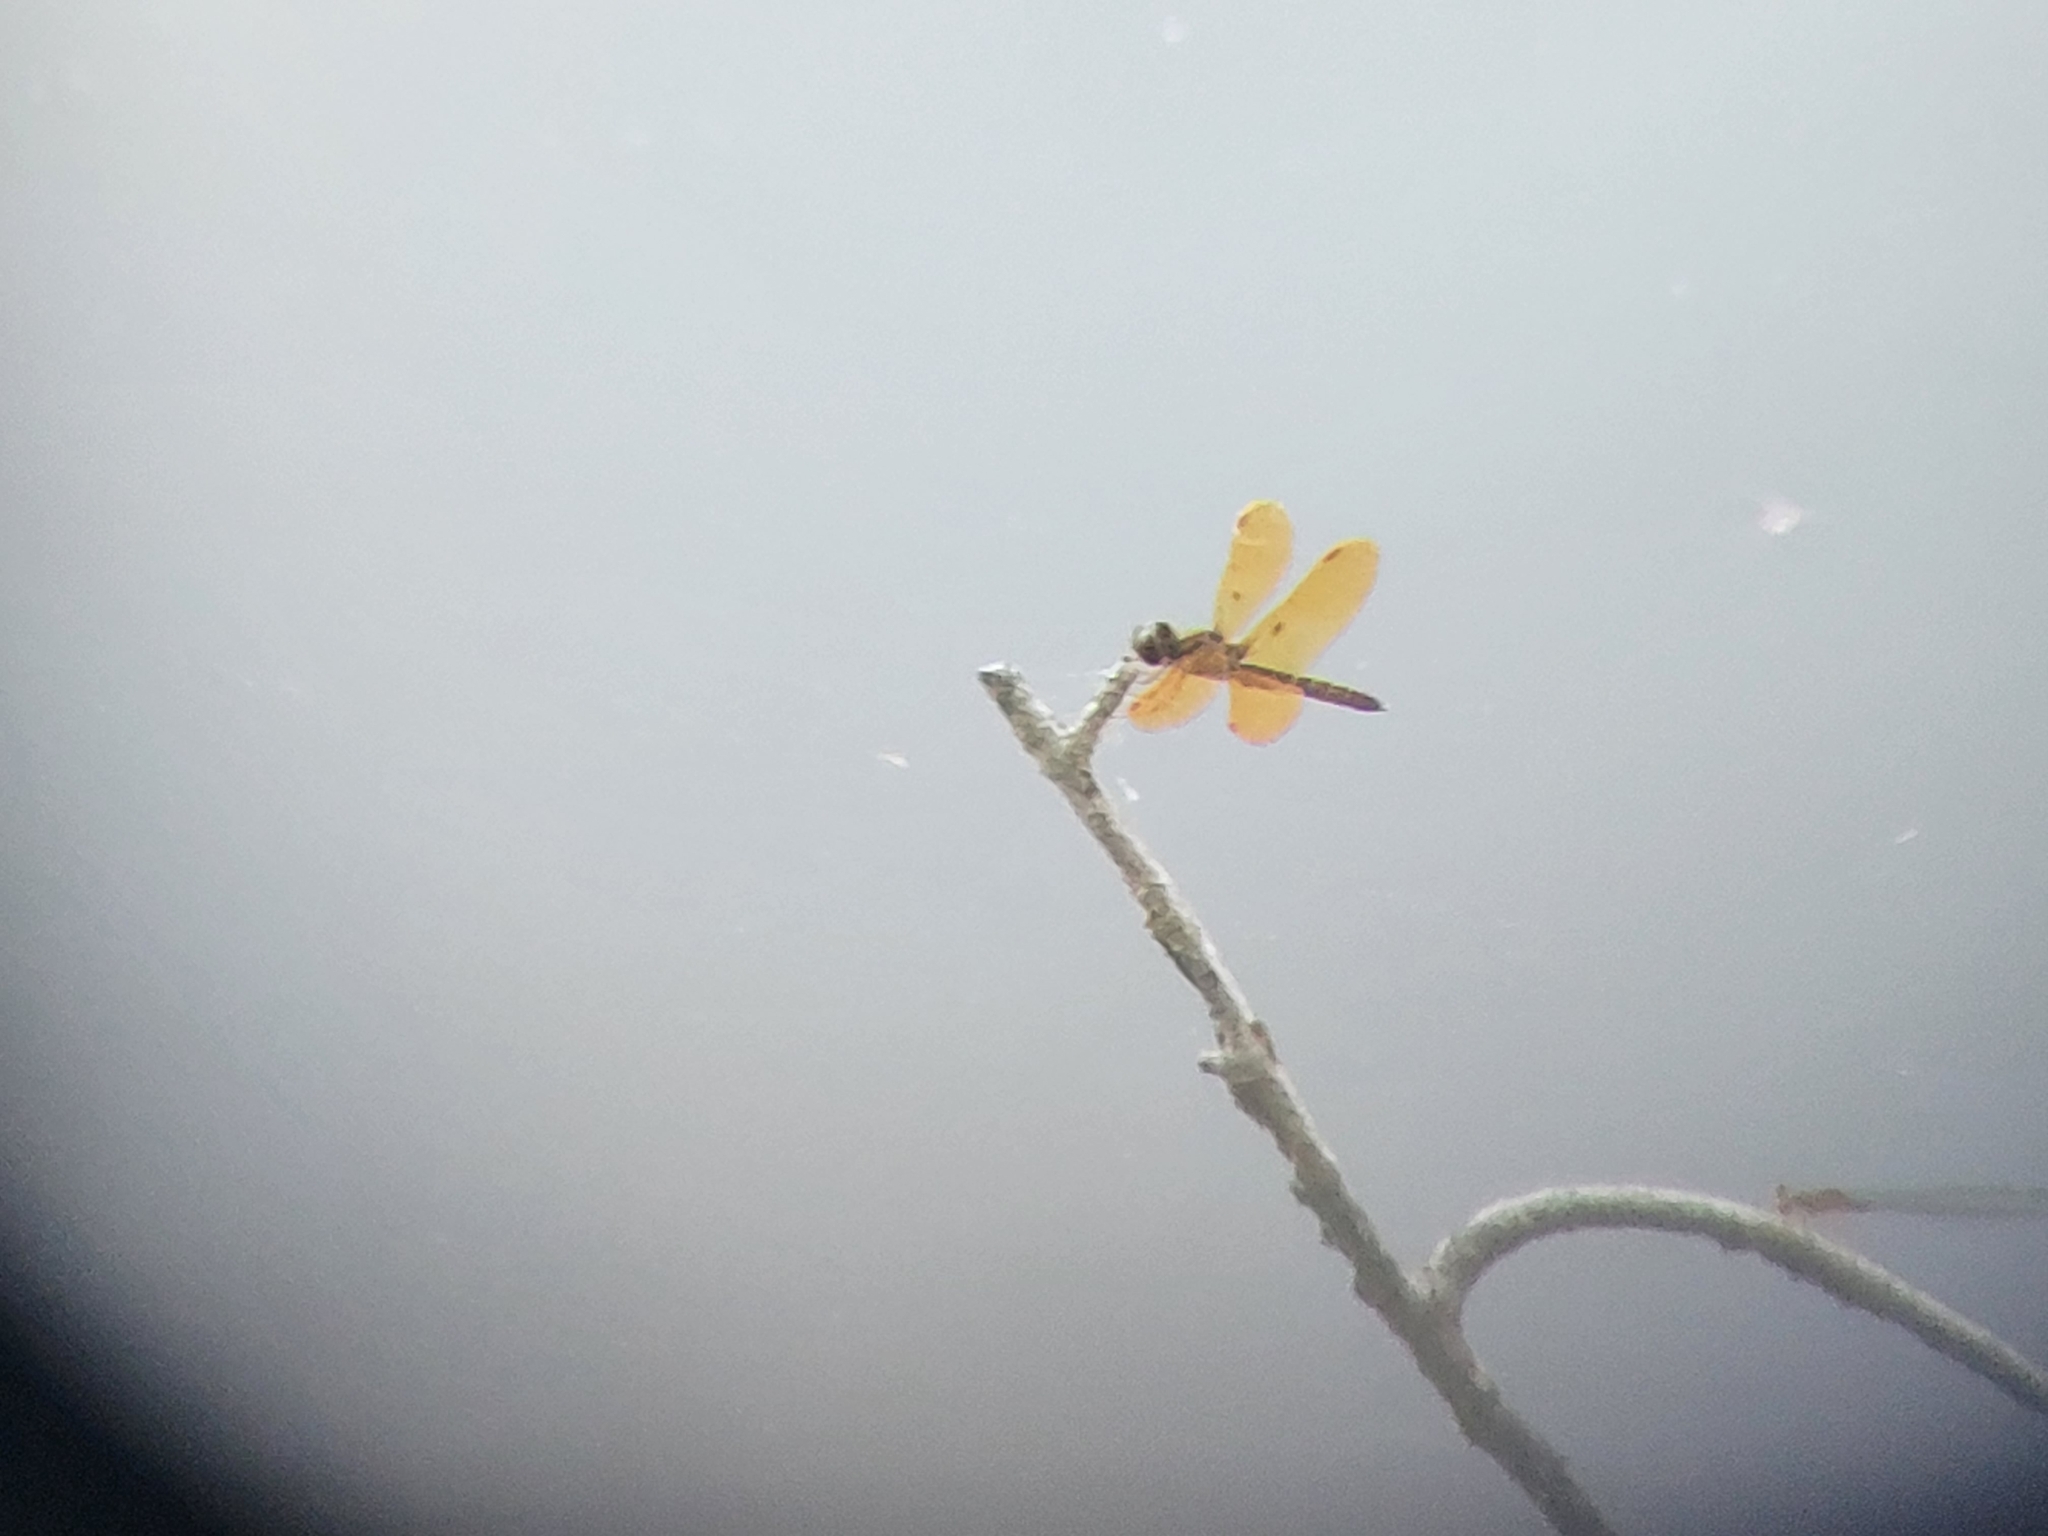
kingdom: Animalia
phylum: Arthropoda
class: Insecta
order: Odonata
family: Libellulidae
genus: Perithemis
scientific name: Perithemis tenera
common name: Eastern amberwing
